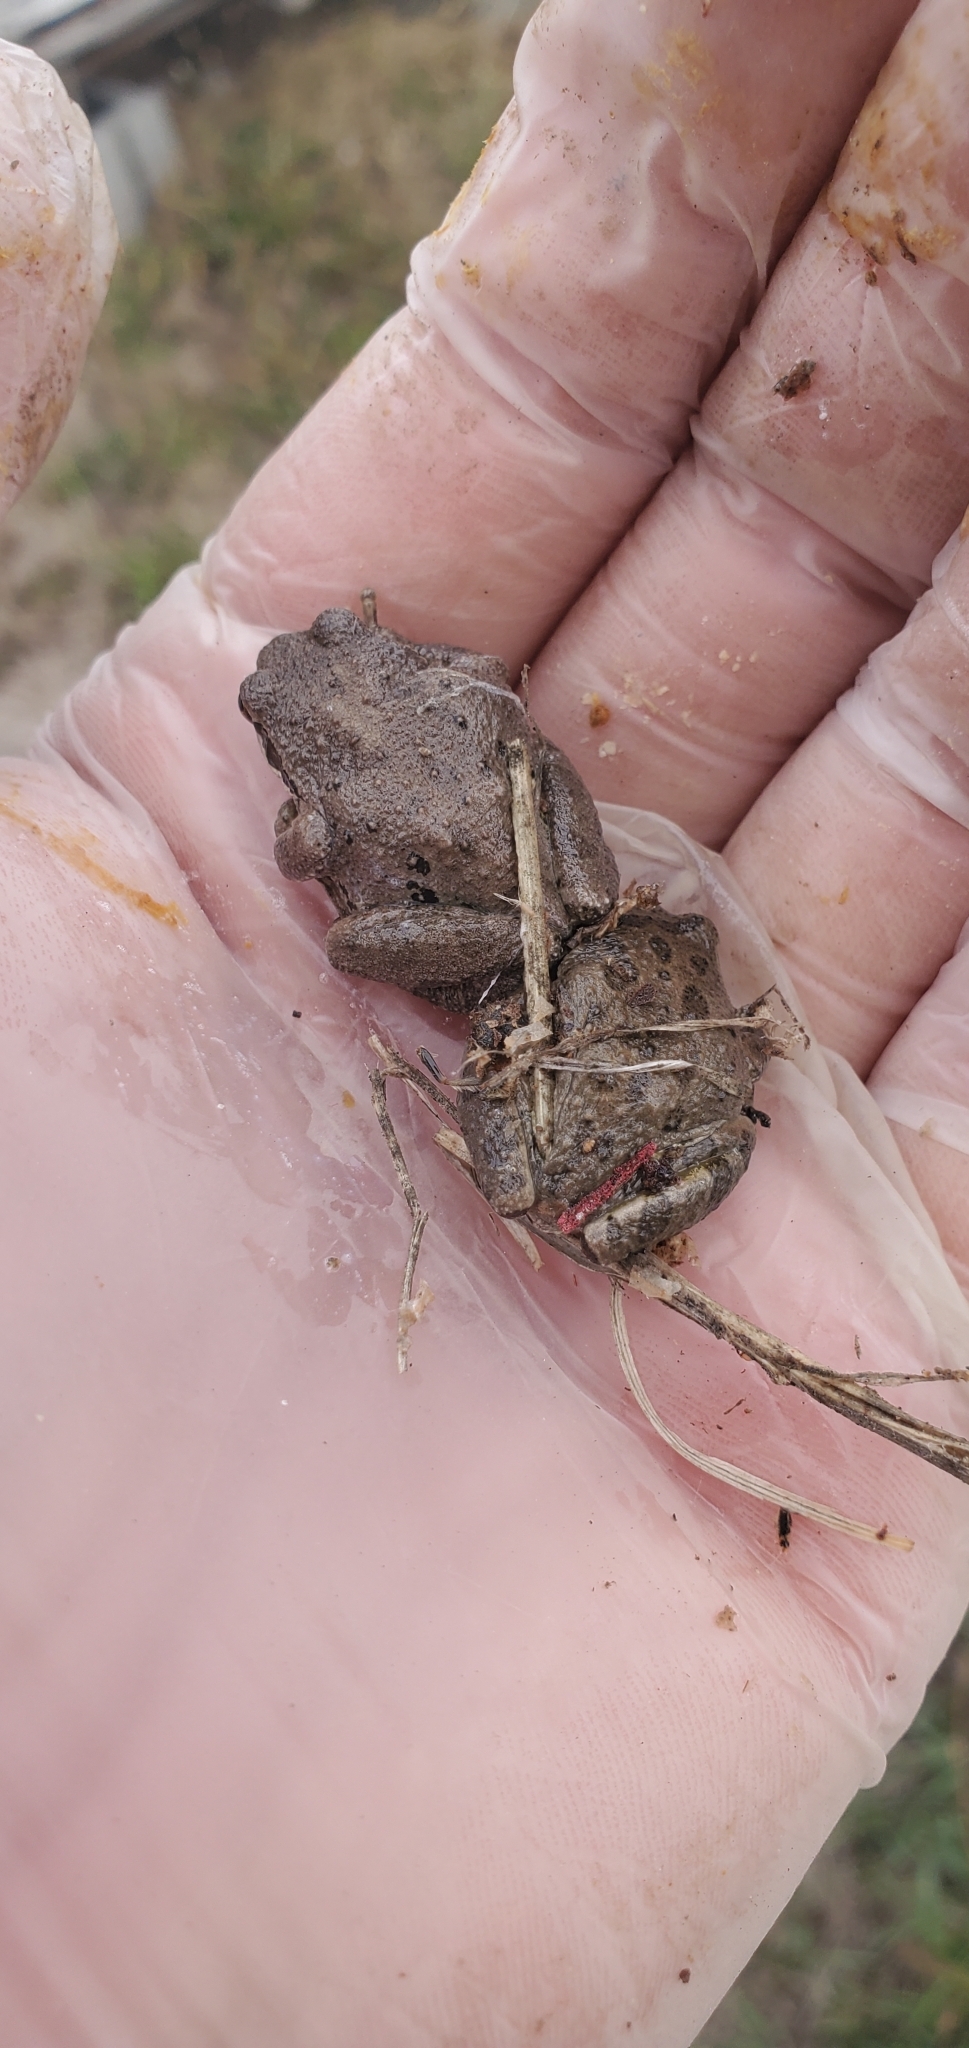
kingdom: Animalia
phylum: Chordata
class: Amphibia
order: Anura
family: Hylidae
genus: Pseudacris
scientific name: Pseudacris regilla
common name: Pacific chorus frog
